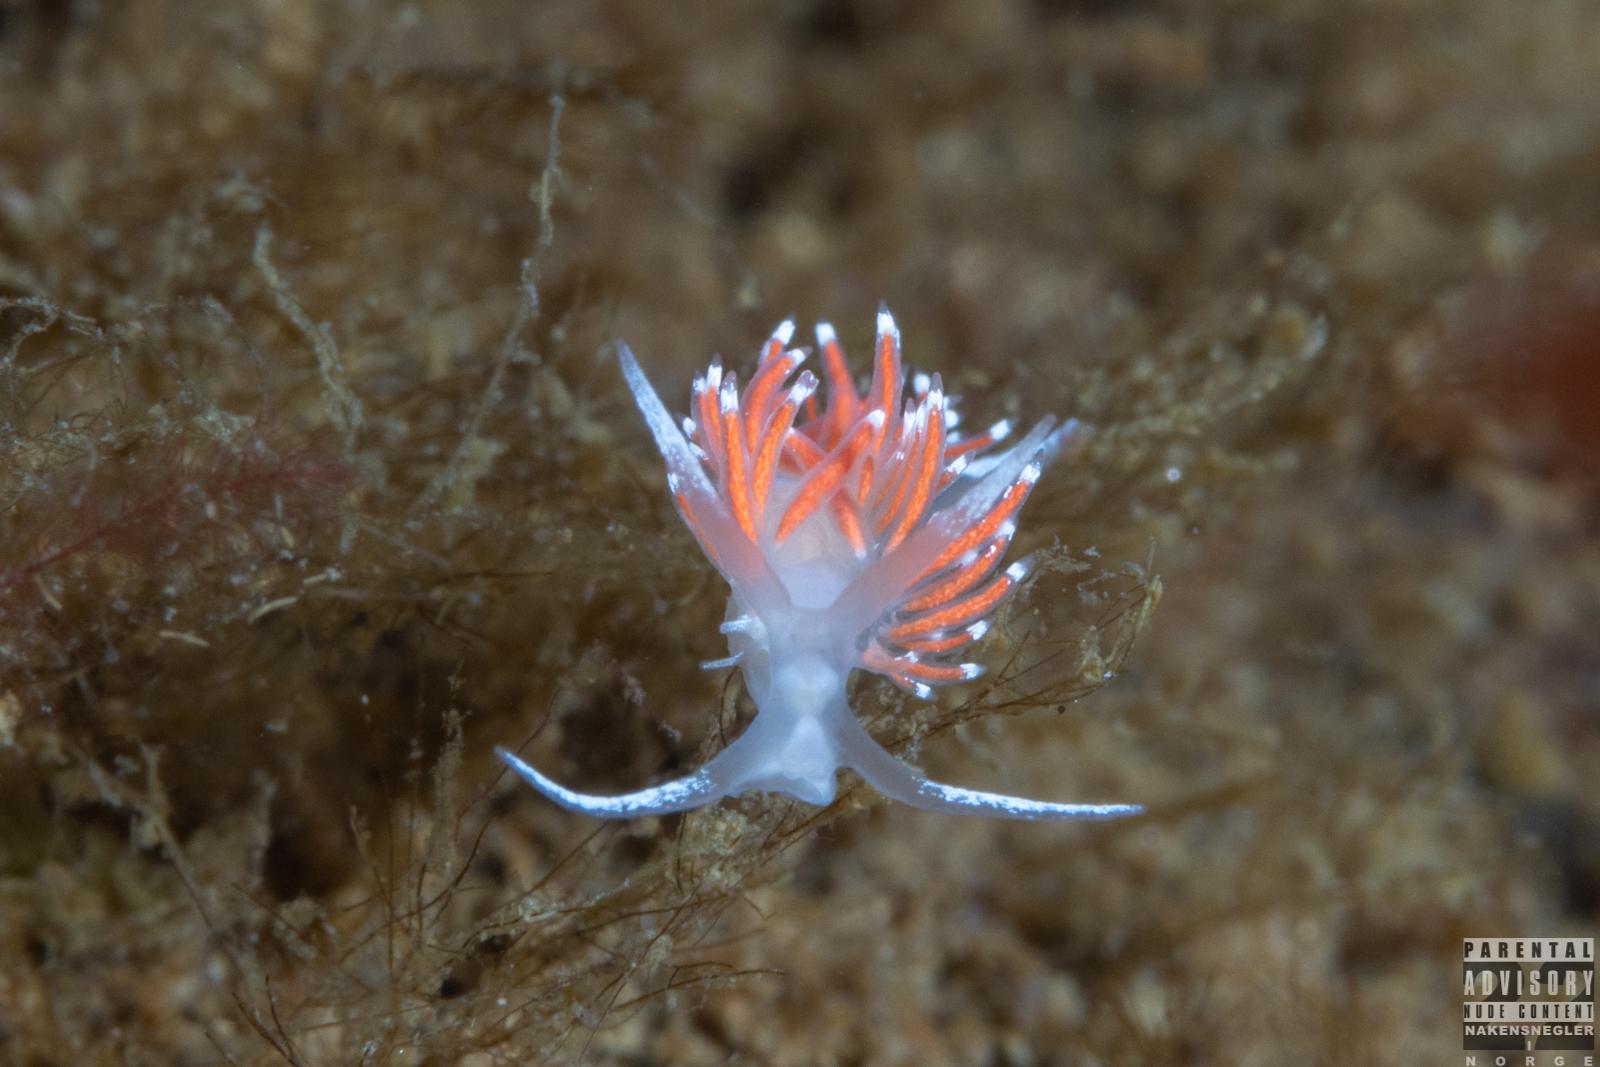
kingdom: Animalia
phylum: Mollusca
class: Gastropoda
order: Nudibranchia
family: Coryphellidae
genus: Coryphella
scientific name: Coryphella gracilis
